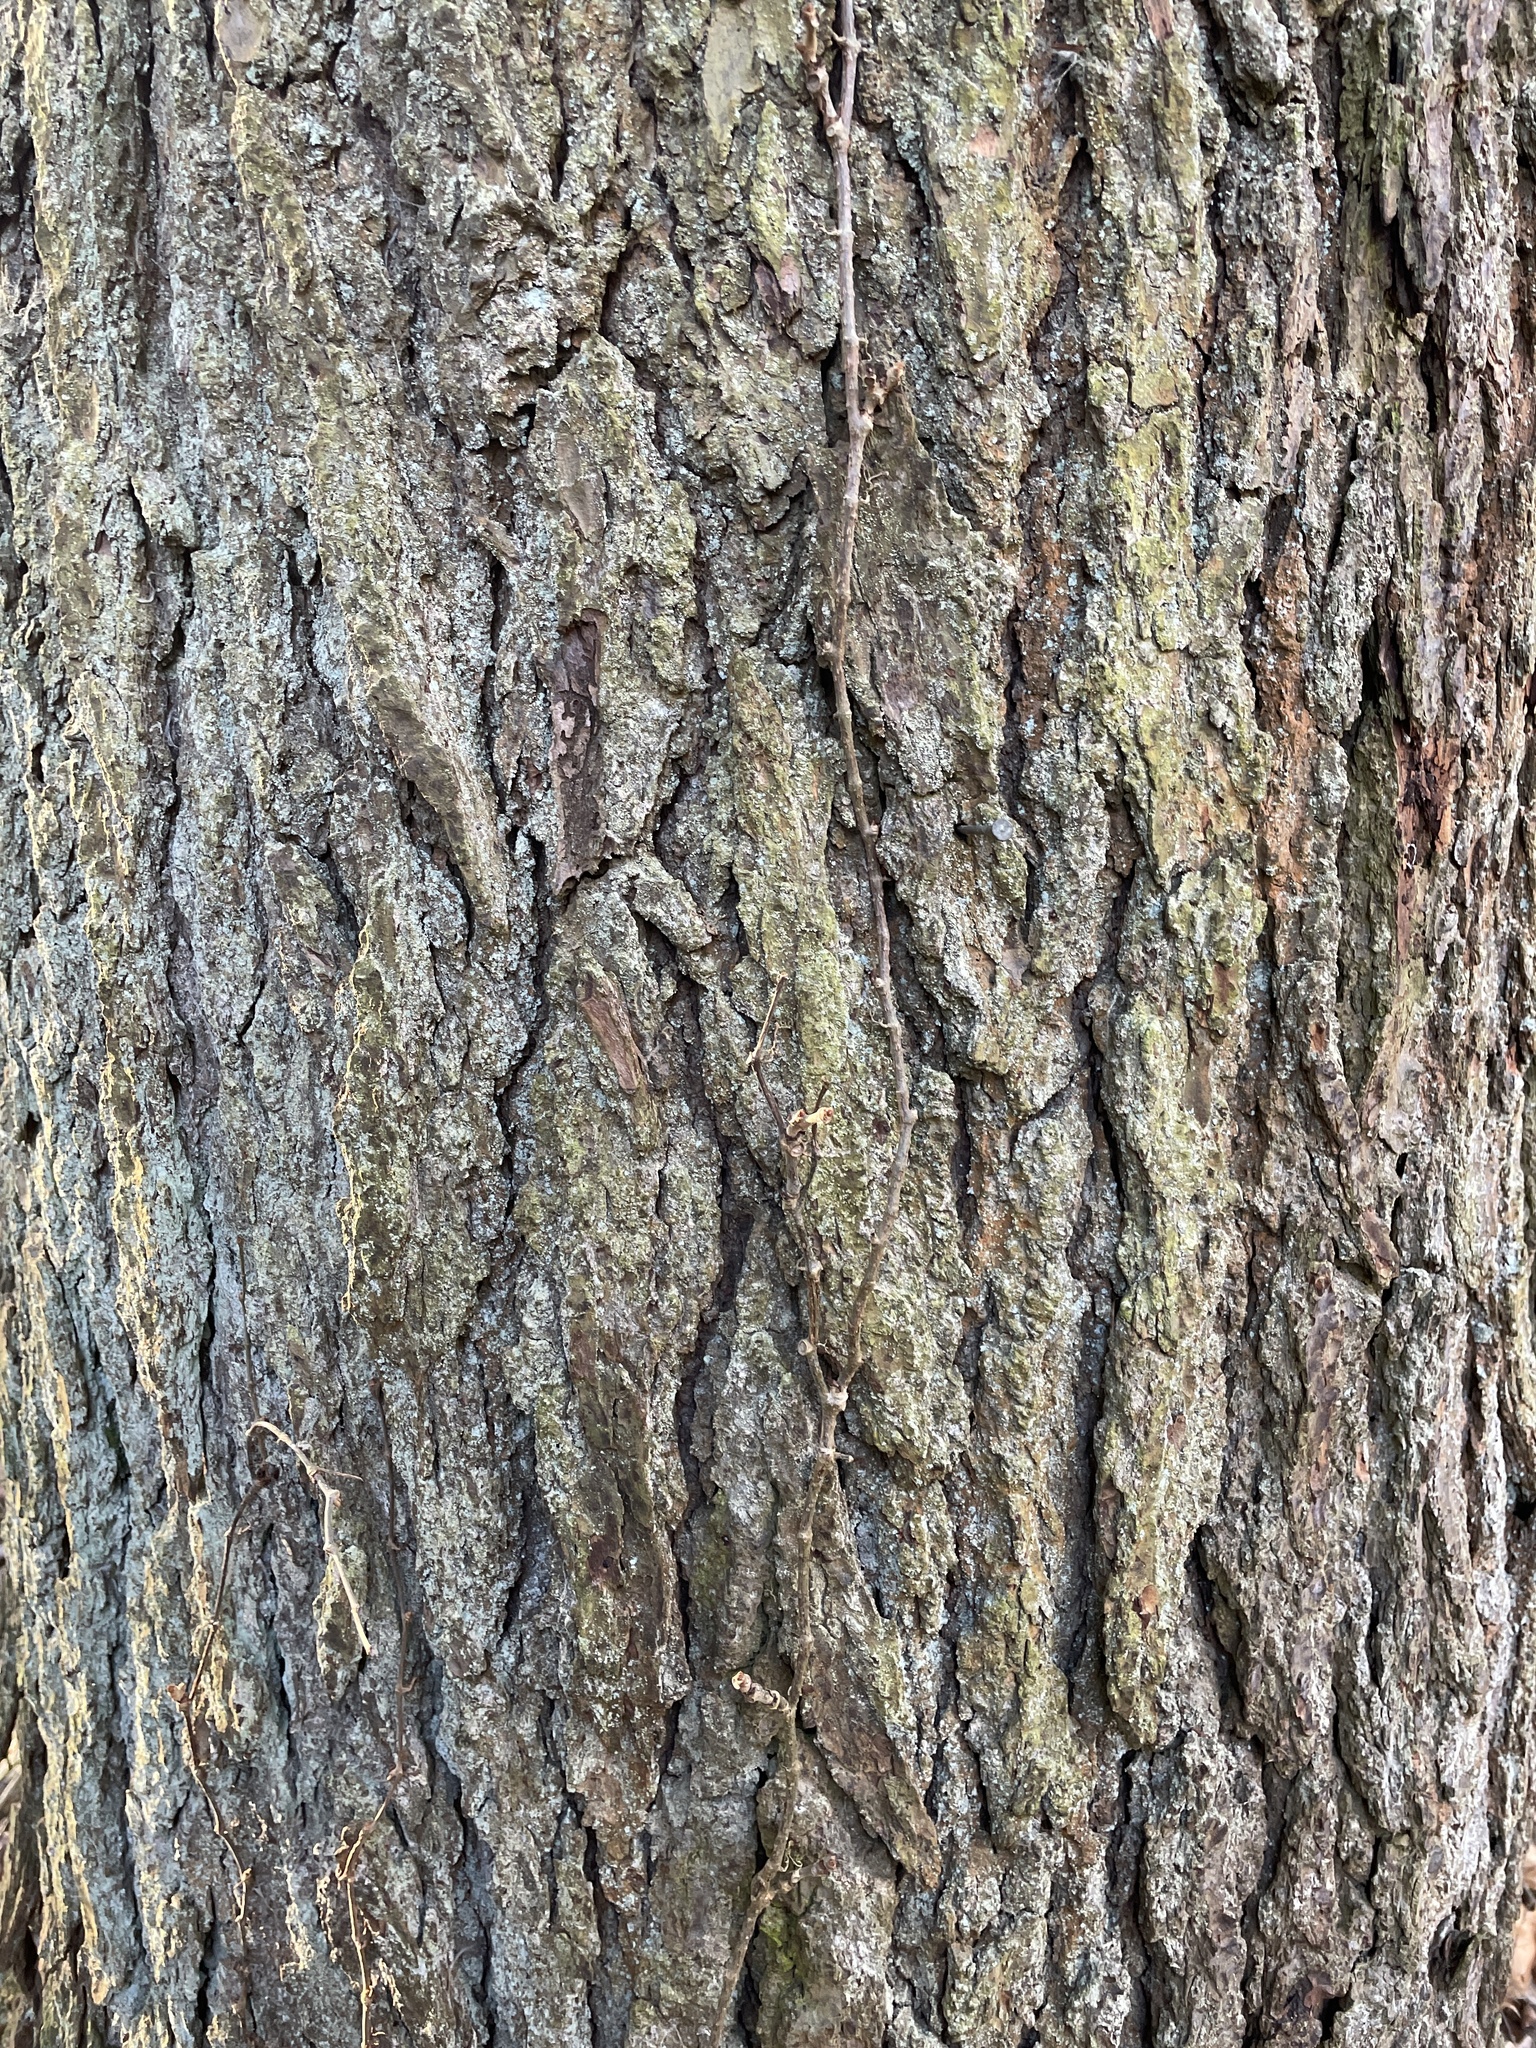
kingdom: Plantae
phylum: Tracheophyta
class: Pinopsida
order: Pinales
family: Pinaceae
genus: Tsuga
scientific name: Tsuga canadensis
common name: Eastern hemlock
